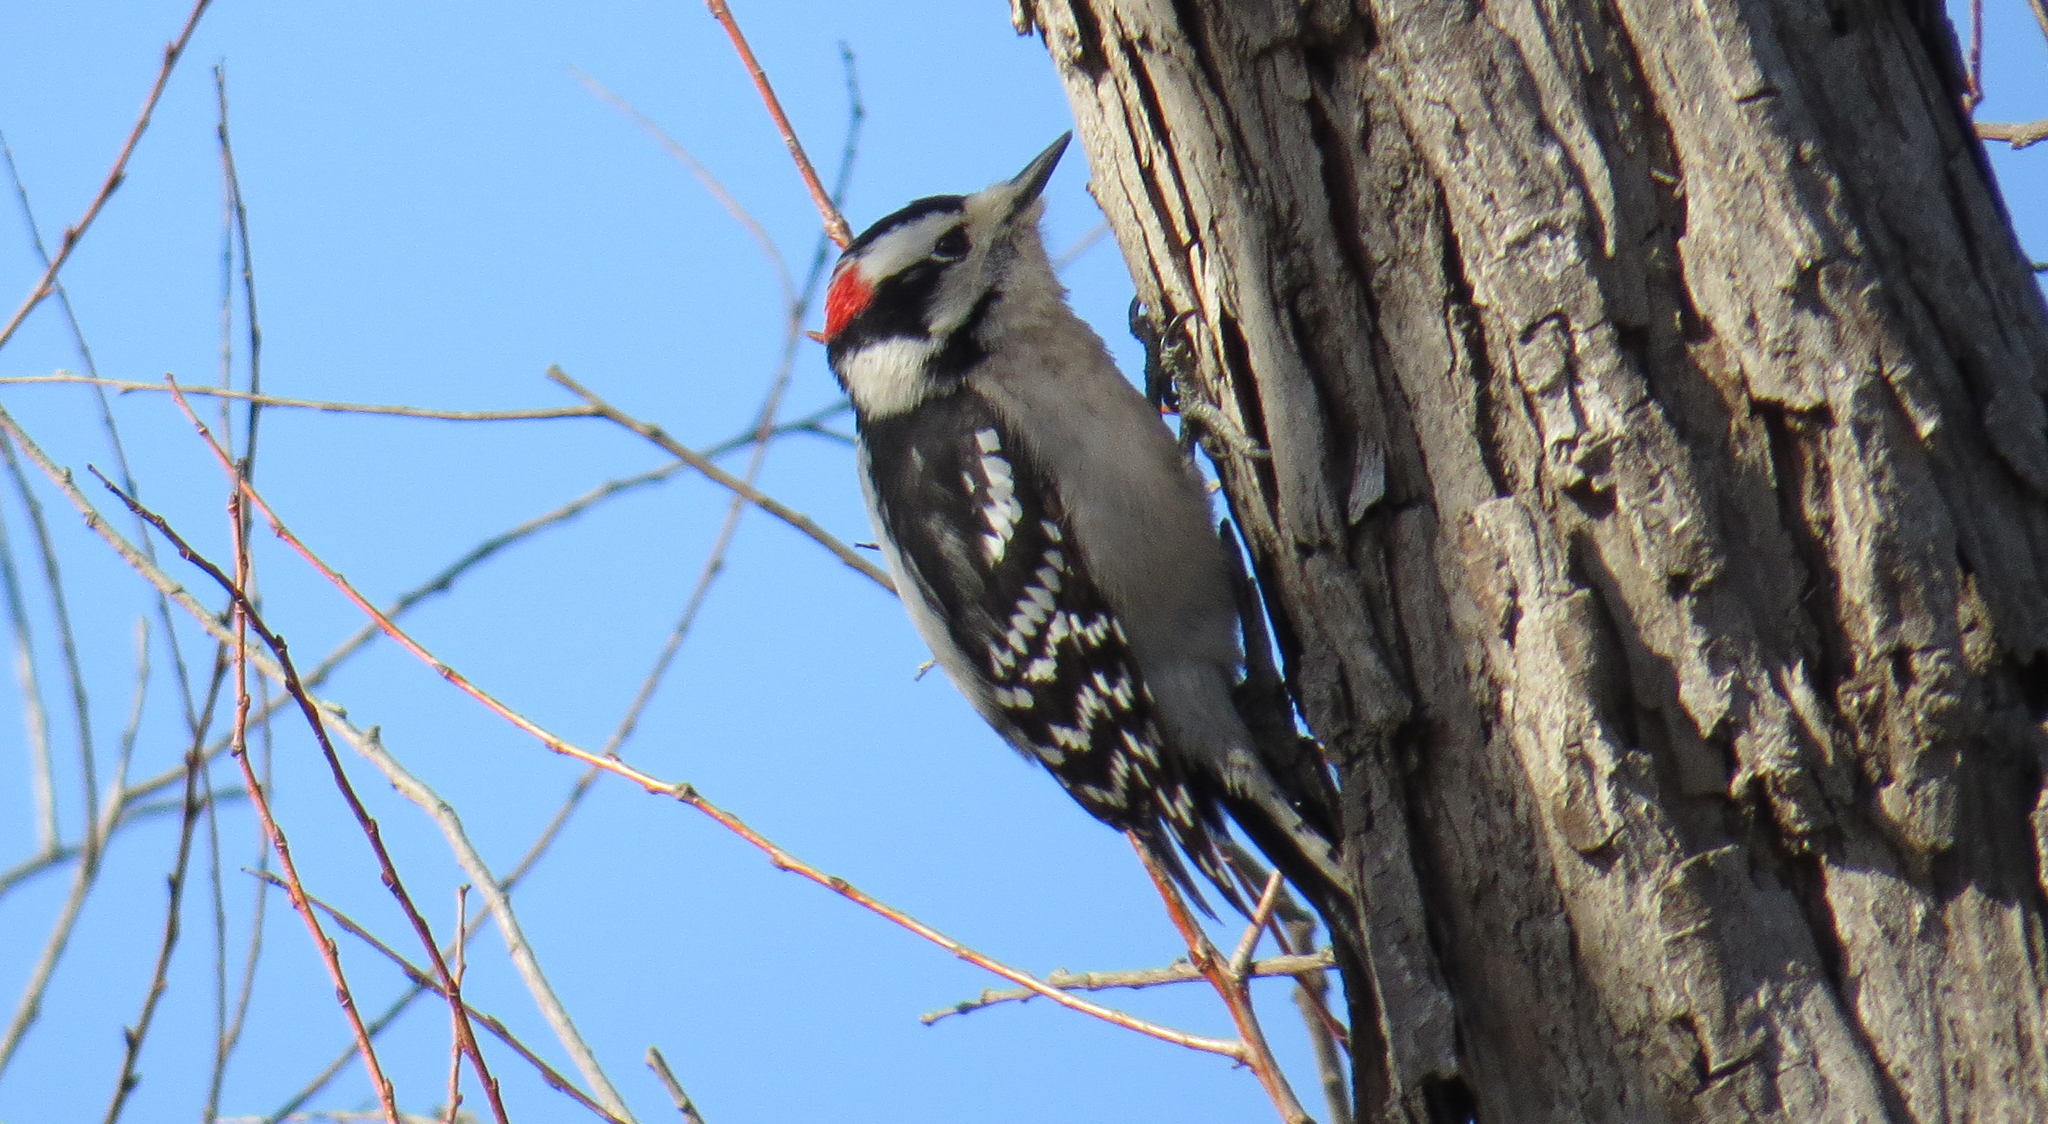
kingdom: Animalia
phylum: Chordata
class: Aves
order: Piciformes
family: Picidae
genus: Dryobates
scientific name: Dryobates pubescens
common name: Downy woodpecker
